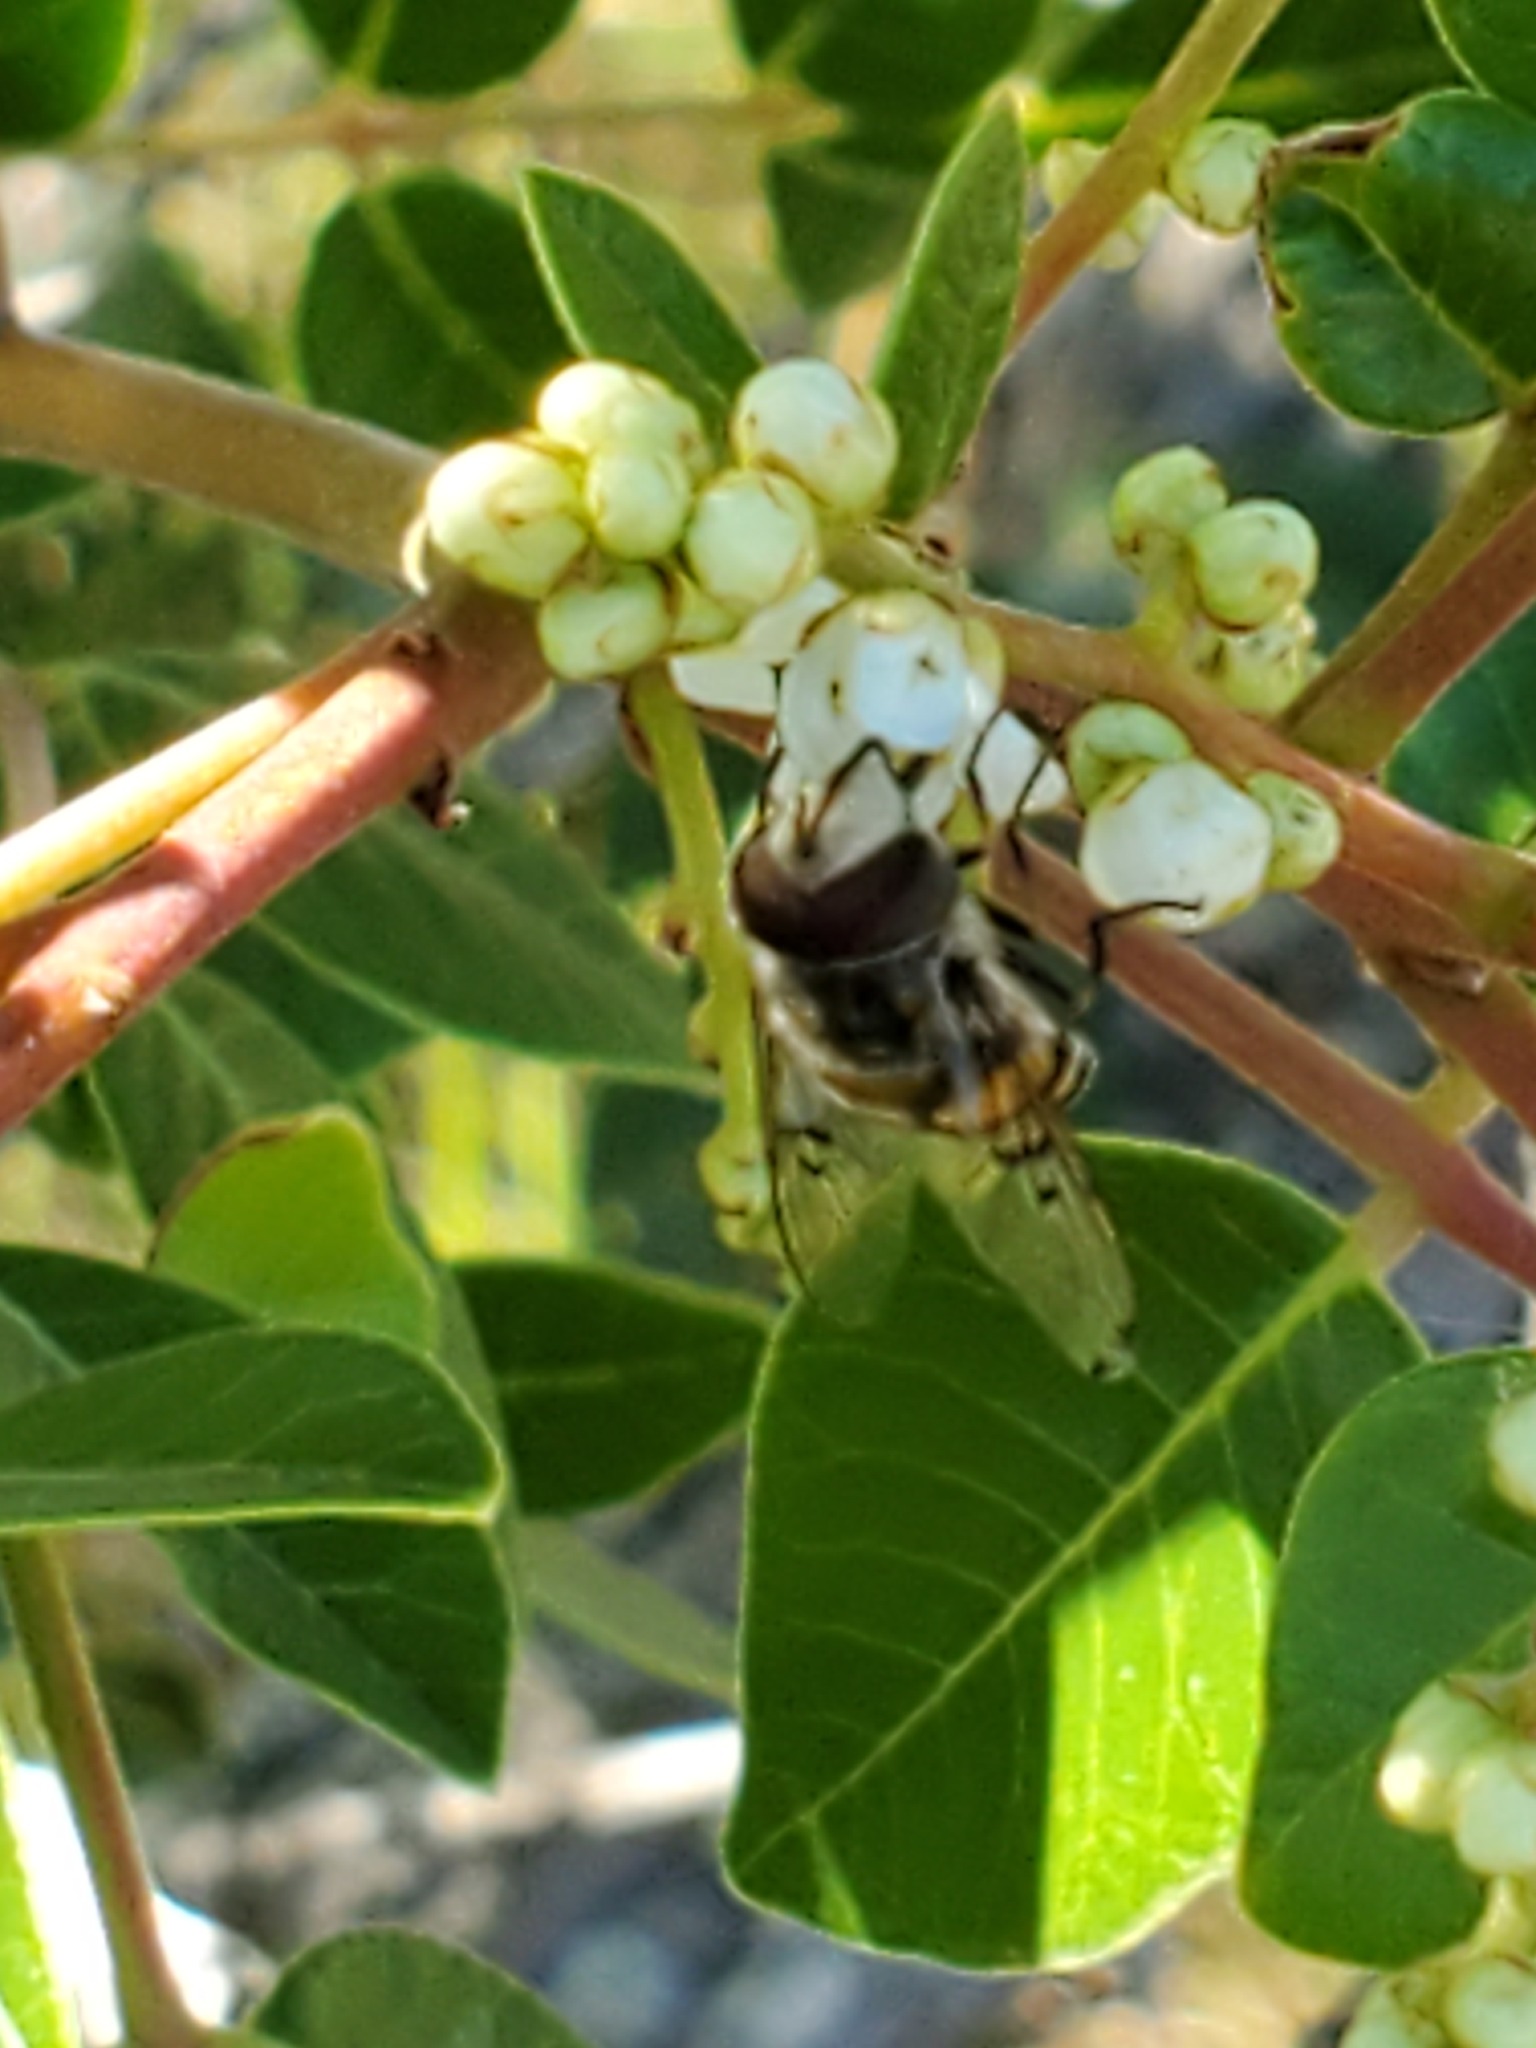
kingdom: Animalia
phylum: Arthropoda
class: Insecta
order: Diptera
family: Syrphidae
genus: Copestylum
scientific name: Copestylum avidum
